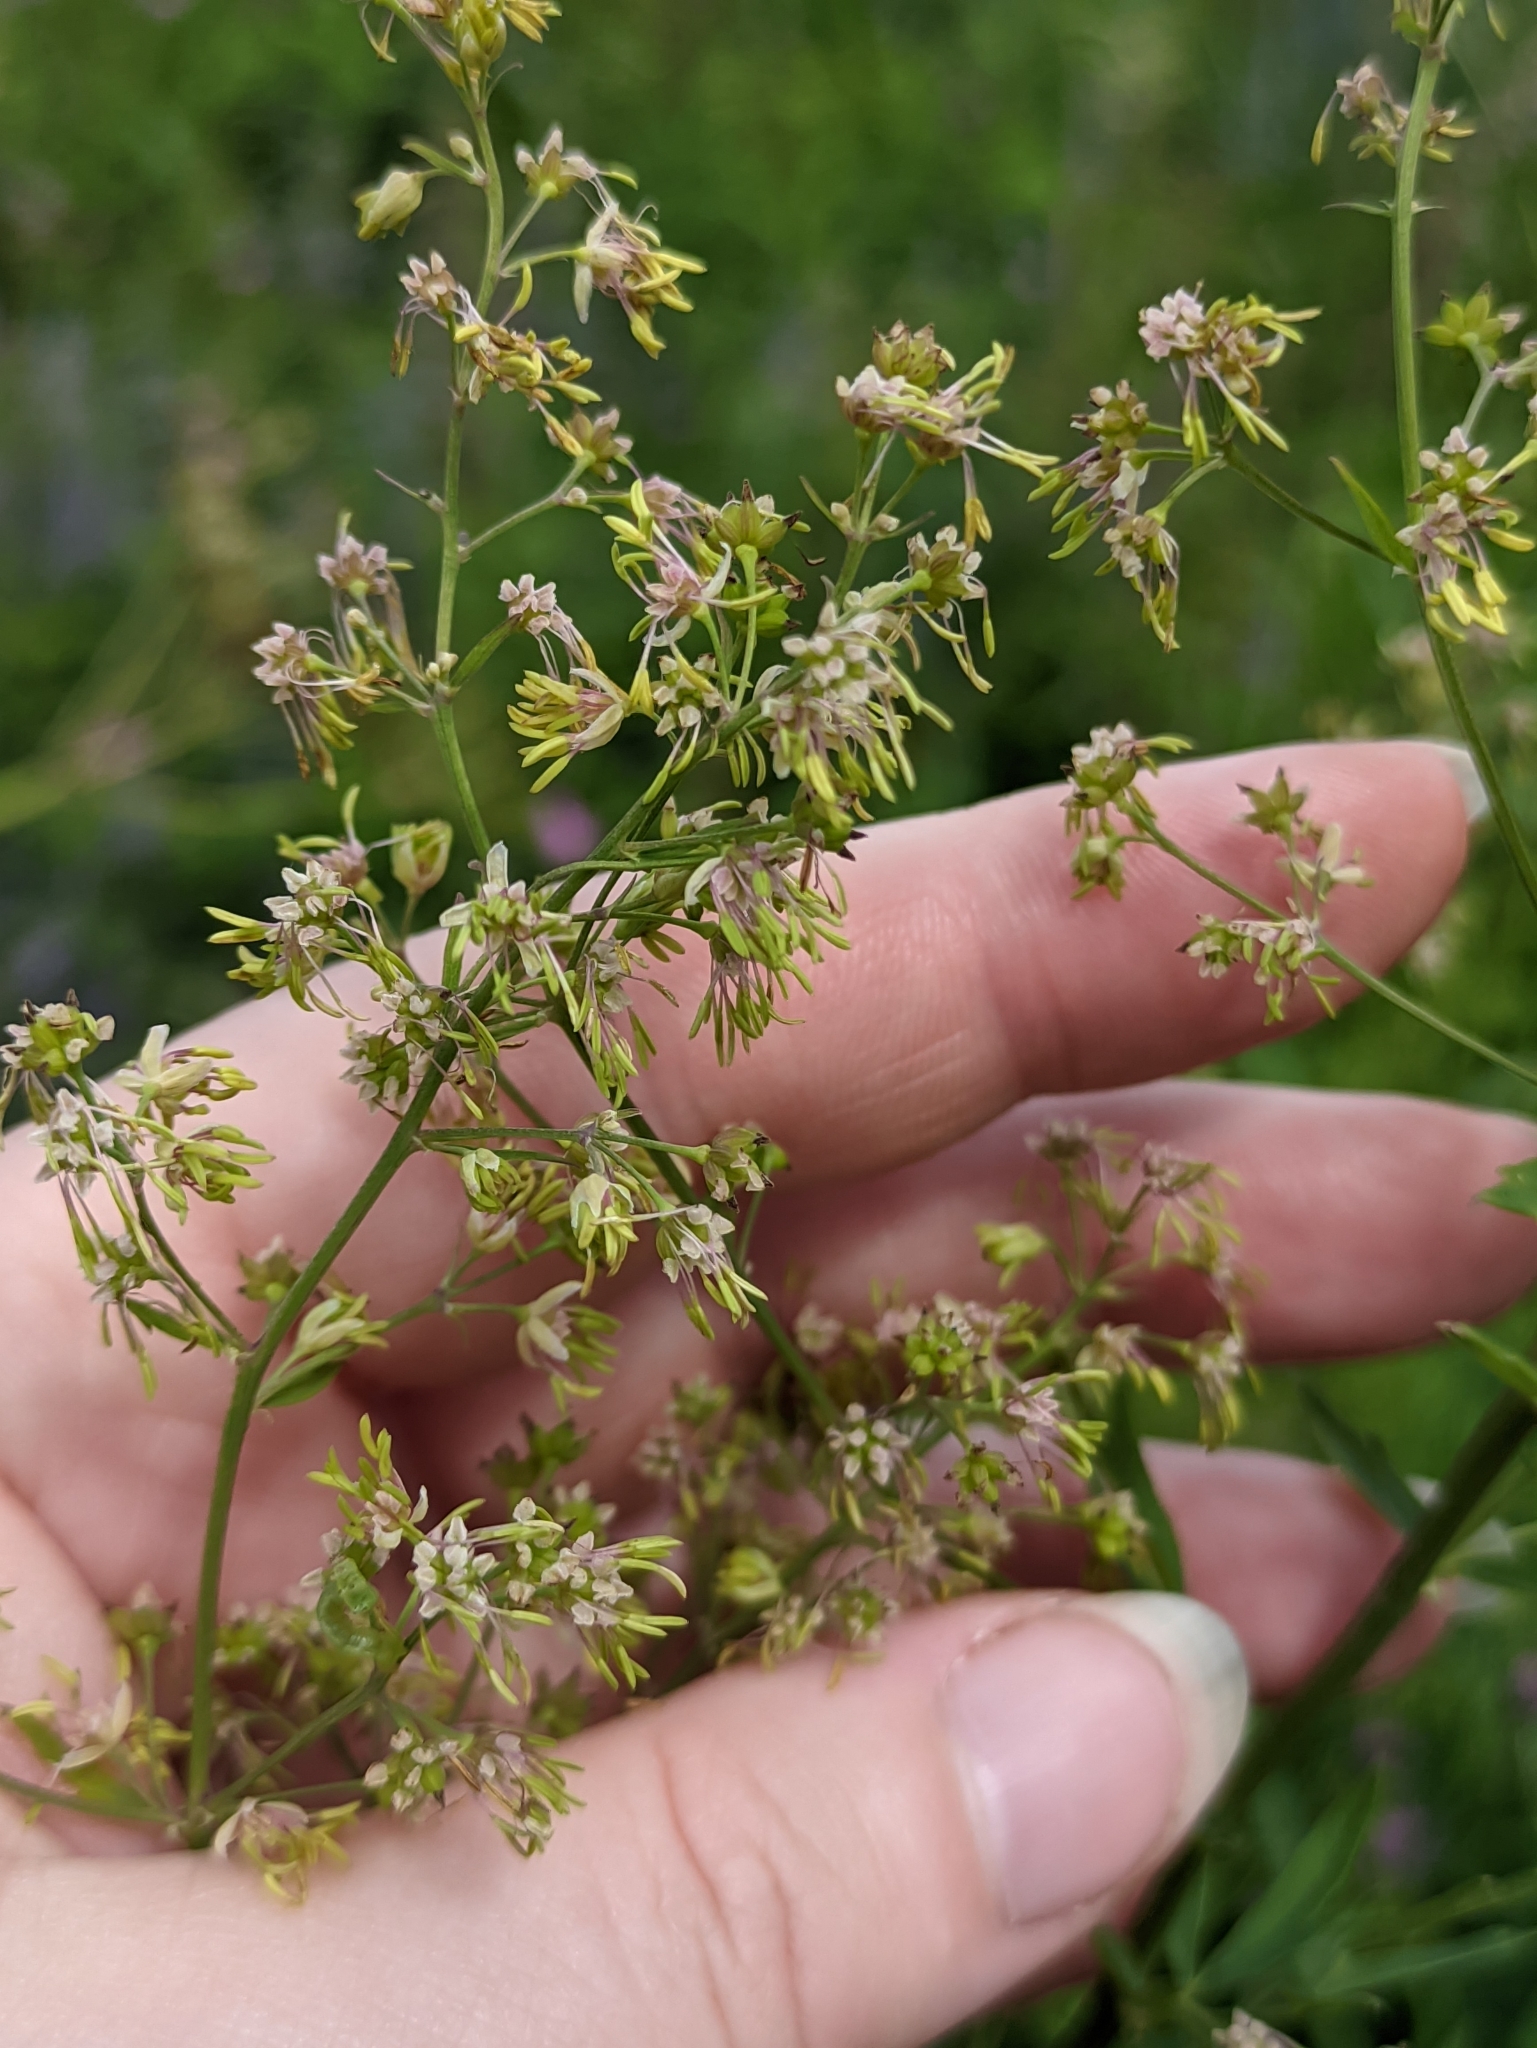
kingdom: Plantae
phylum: Tracheophyta
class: Magnoliopsida
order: Ranunculales
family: Ranunculaceae
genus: Thalictrum
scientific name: Thalictrum simplex
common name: Small meadow-rue
